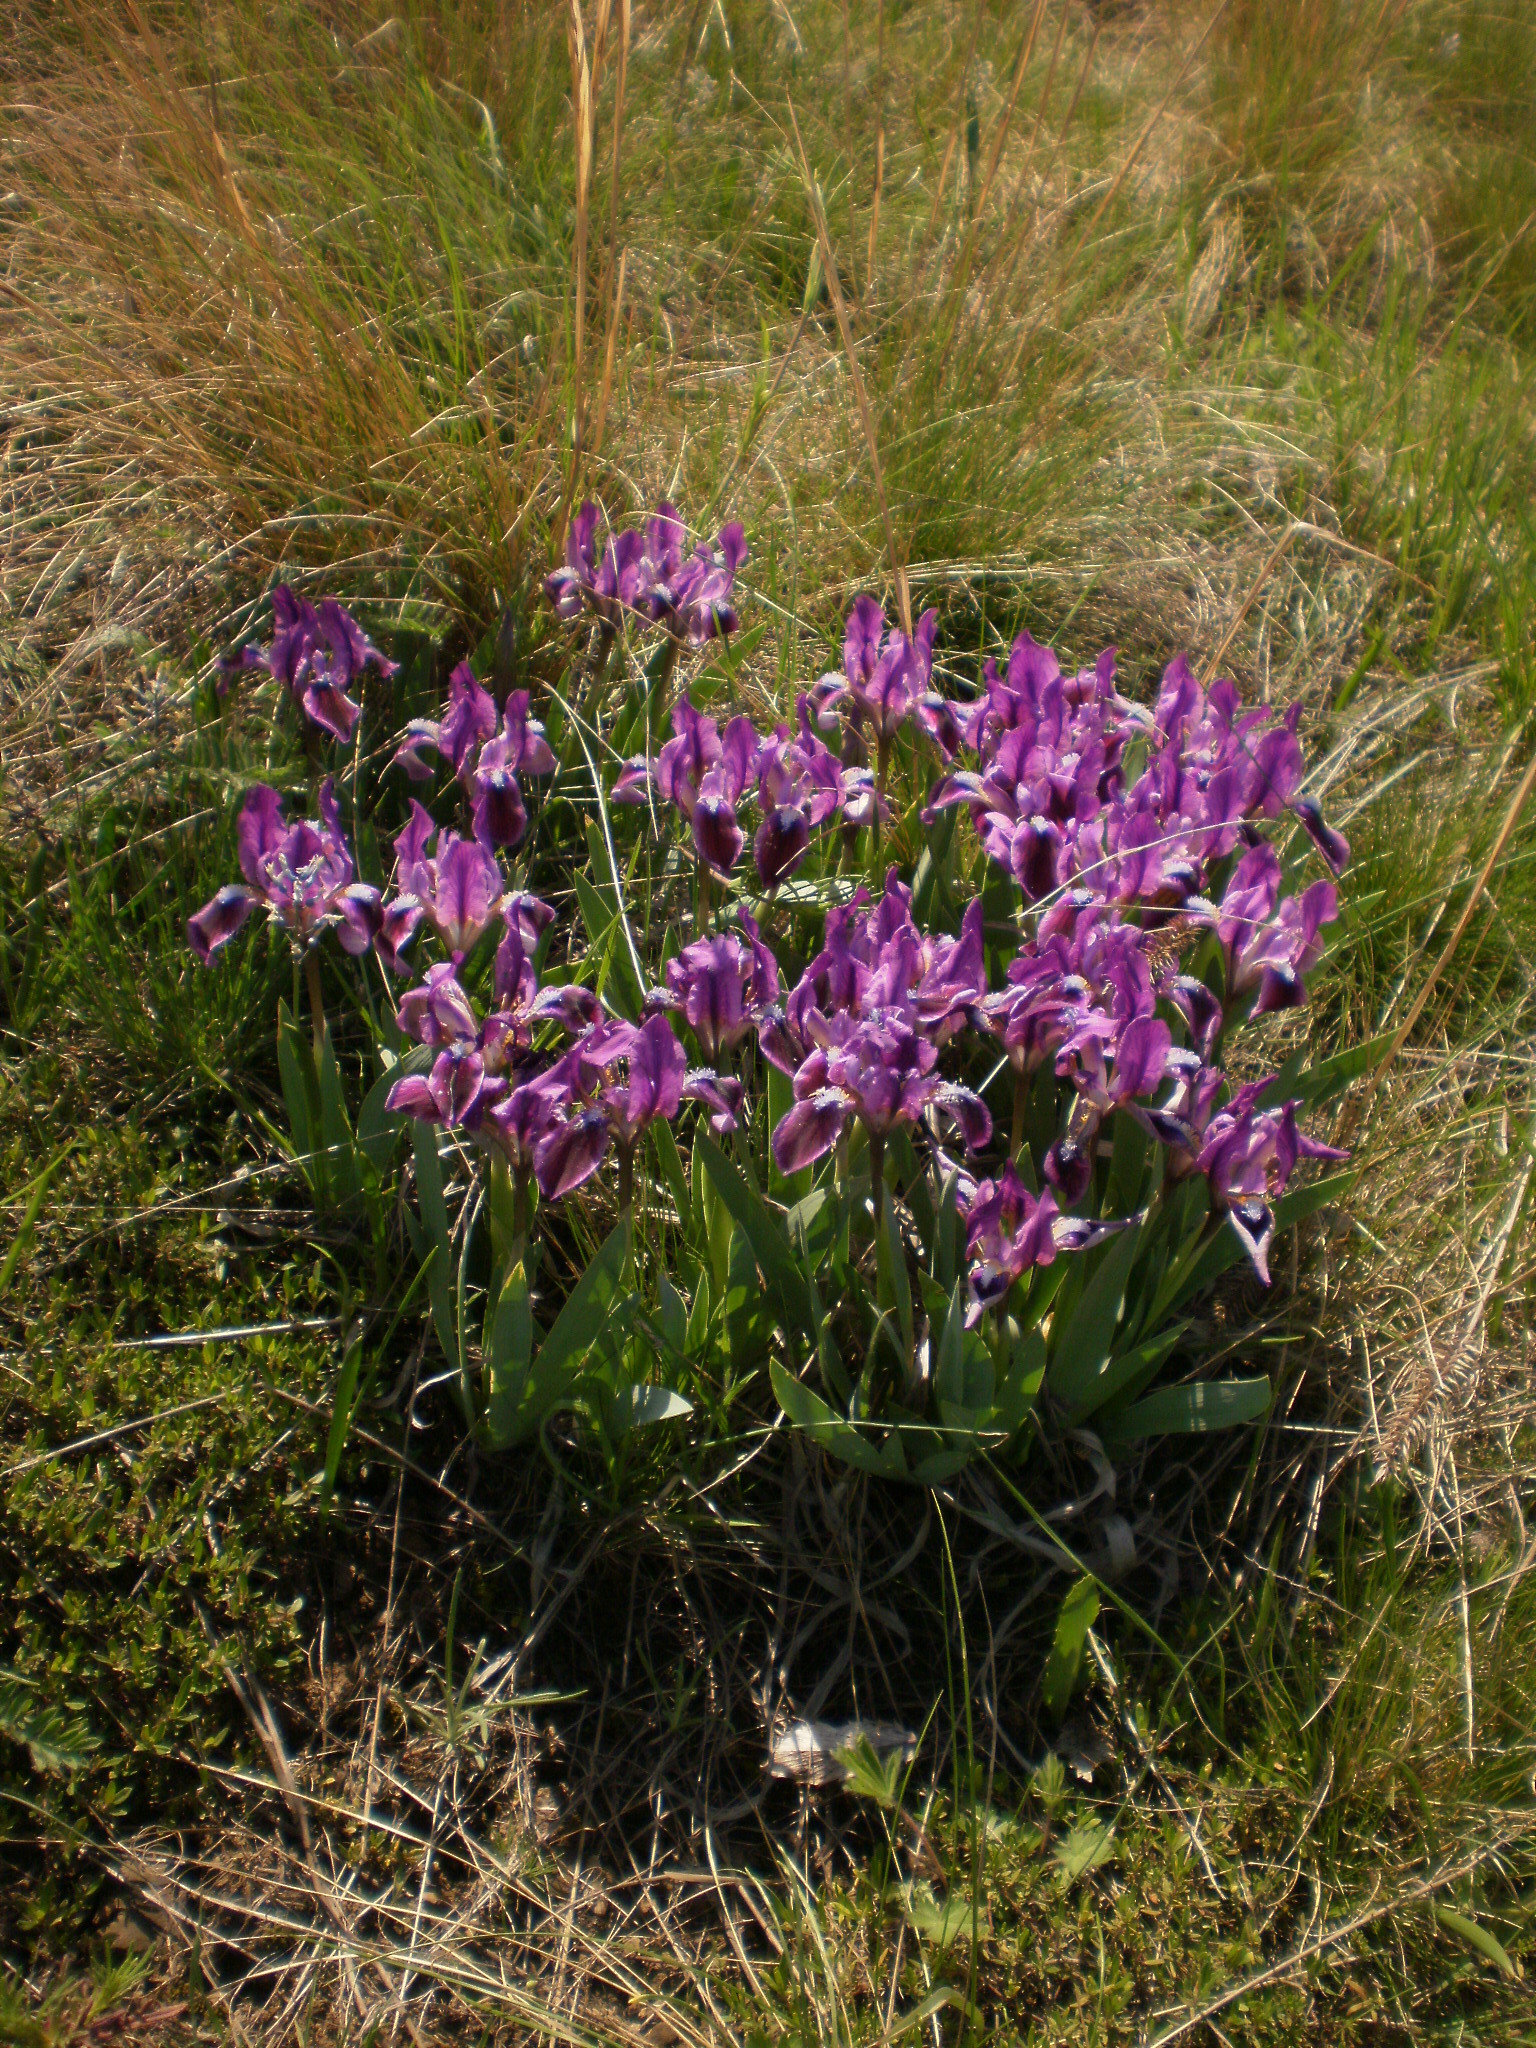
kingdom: Plantae
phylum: Tracheophyta
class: Liliopsida
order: Asparagales
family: Iridaceae
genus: Iris
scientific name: Iris pumila
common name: Dwarf iris
